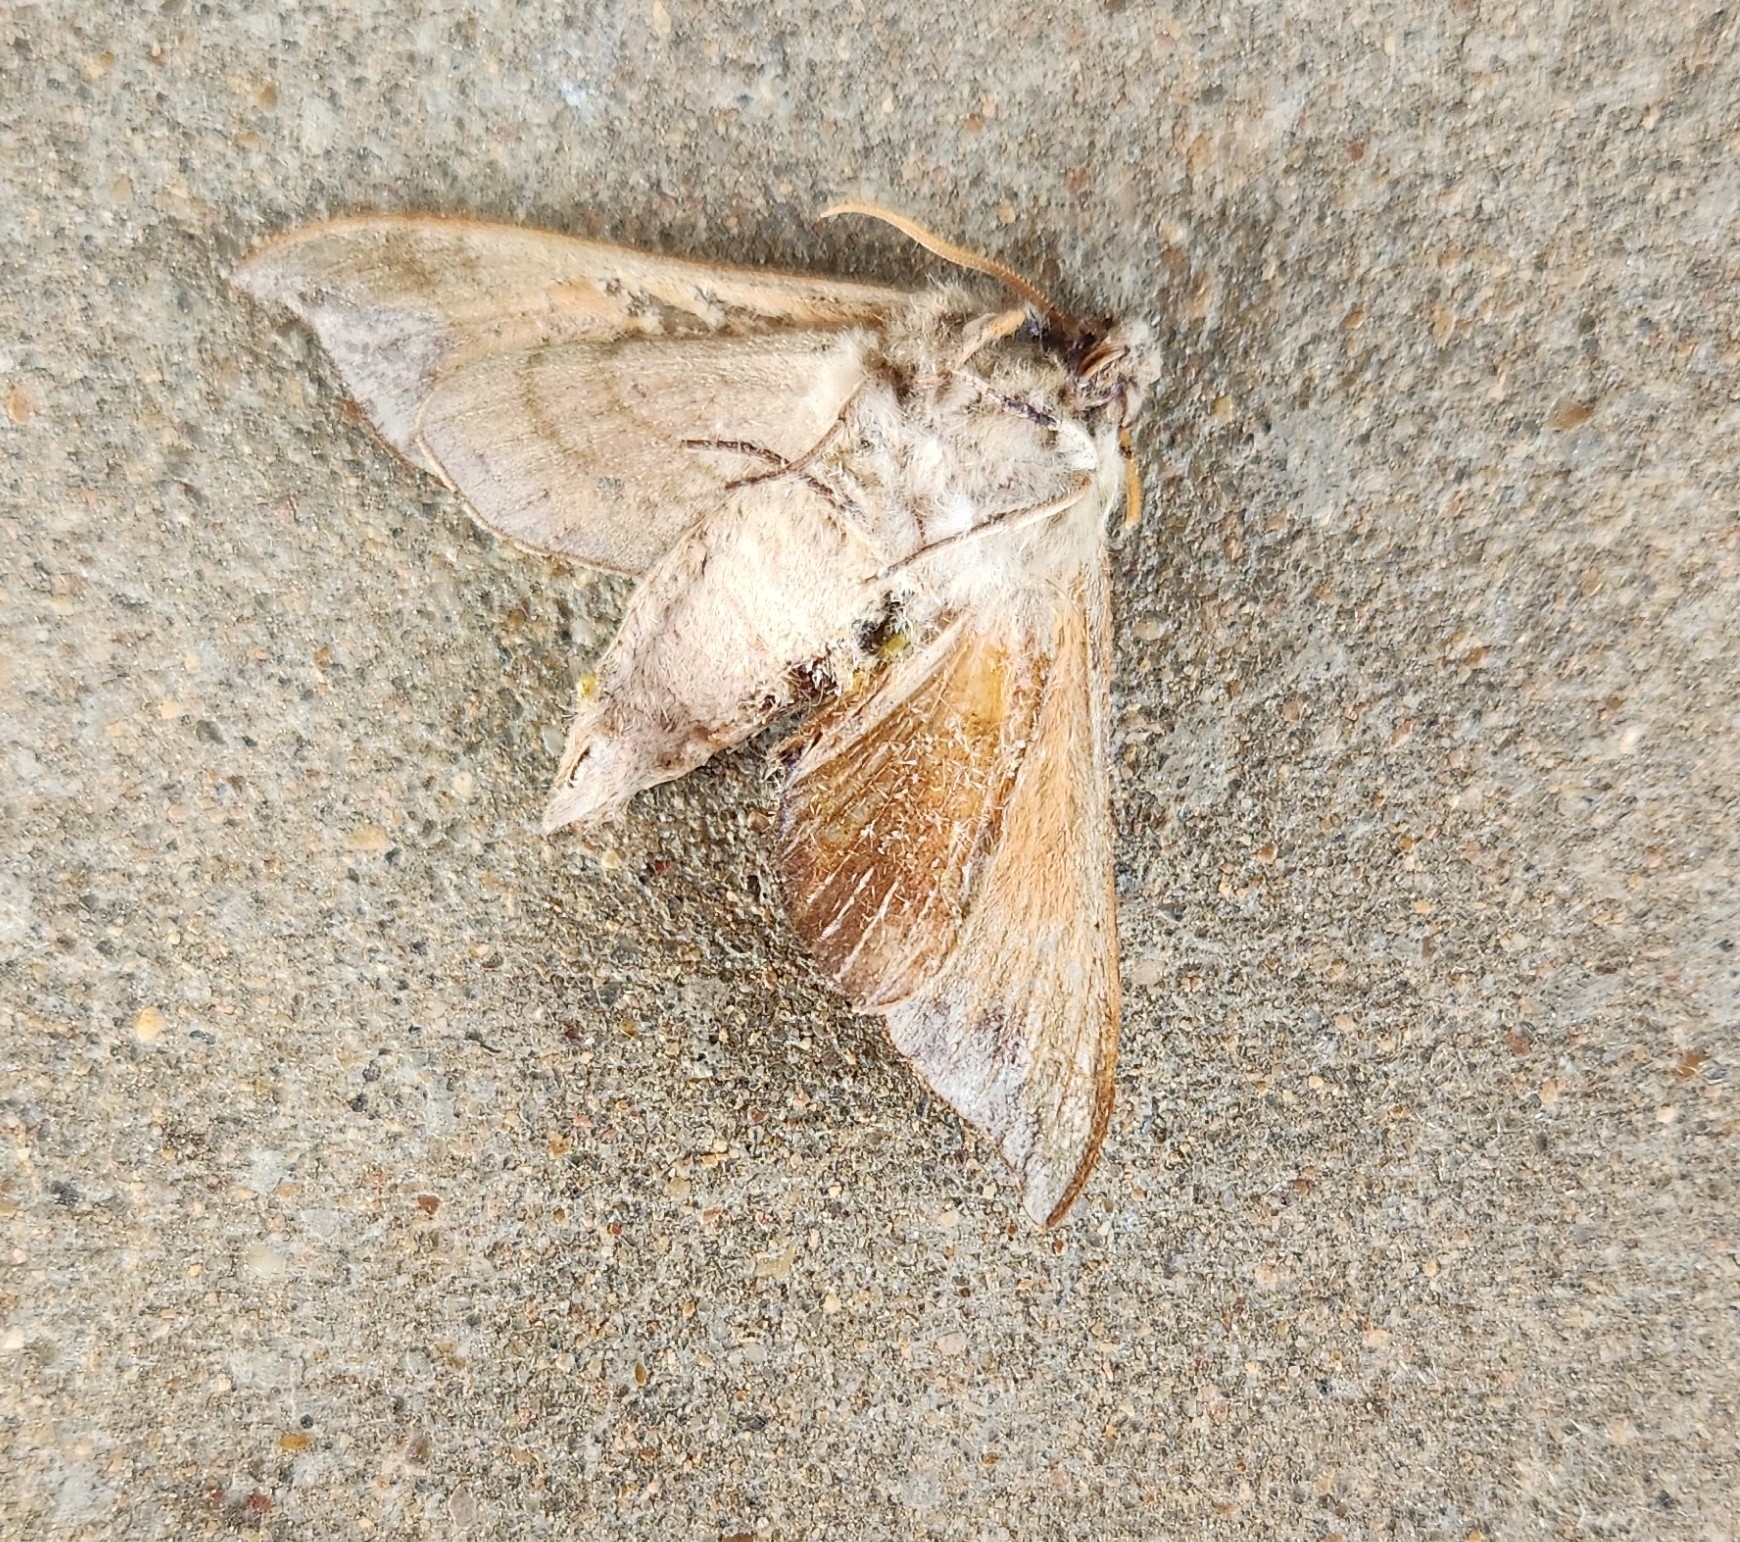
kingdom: Animalia
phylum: Arthropoda
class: Insecta
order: Lepidoptera
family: Sphingidae
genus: Darapsa
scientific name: Darapsa myron
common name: Hog sphinx
